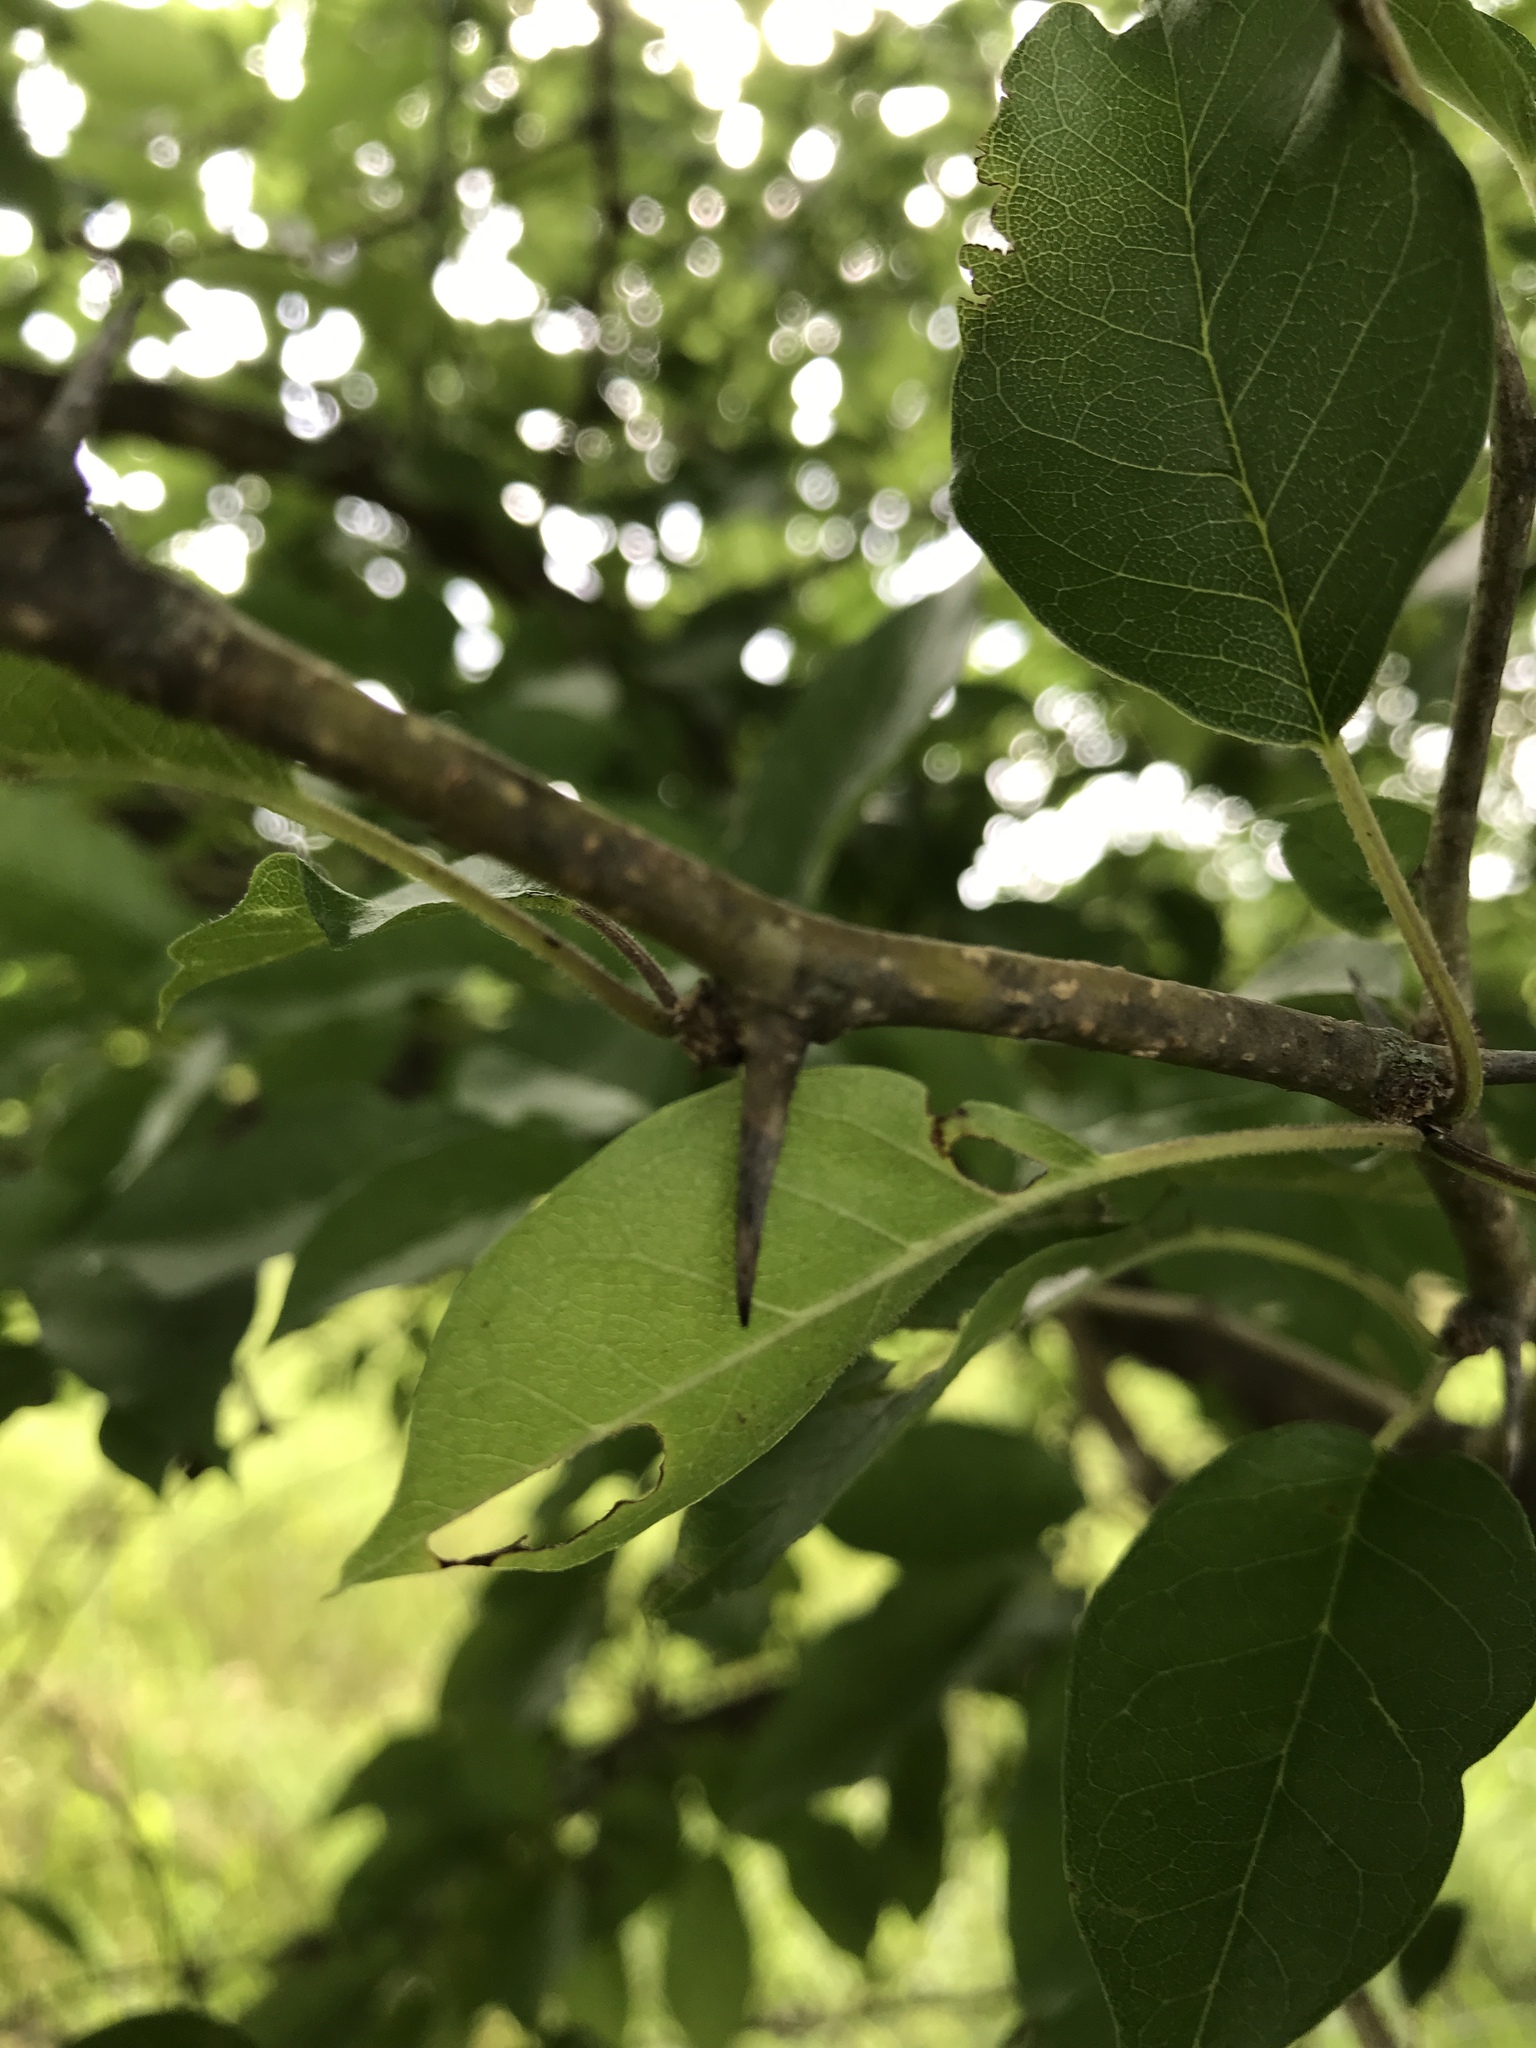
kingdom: Plantae
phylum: Tracheophyta
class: Magnoliopsida
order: Rosales
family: Moraceae
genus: Maclura
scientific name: Maclura pomifera
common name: Osage-orange
